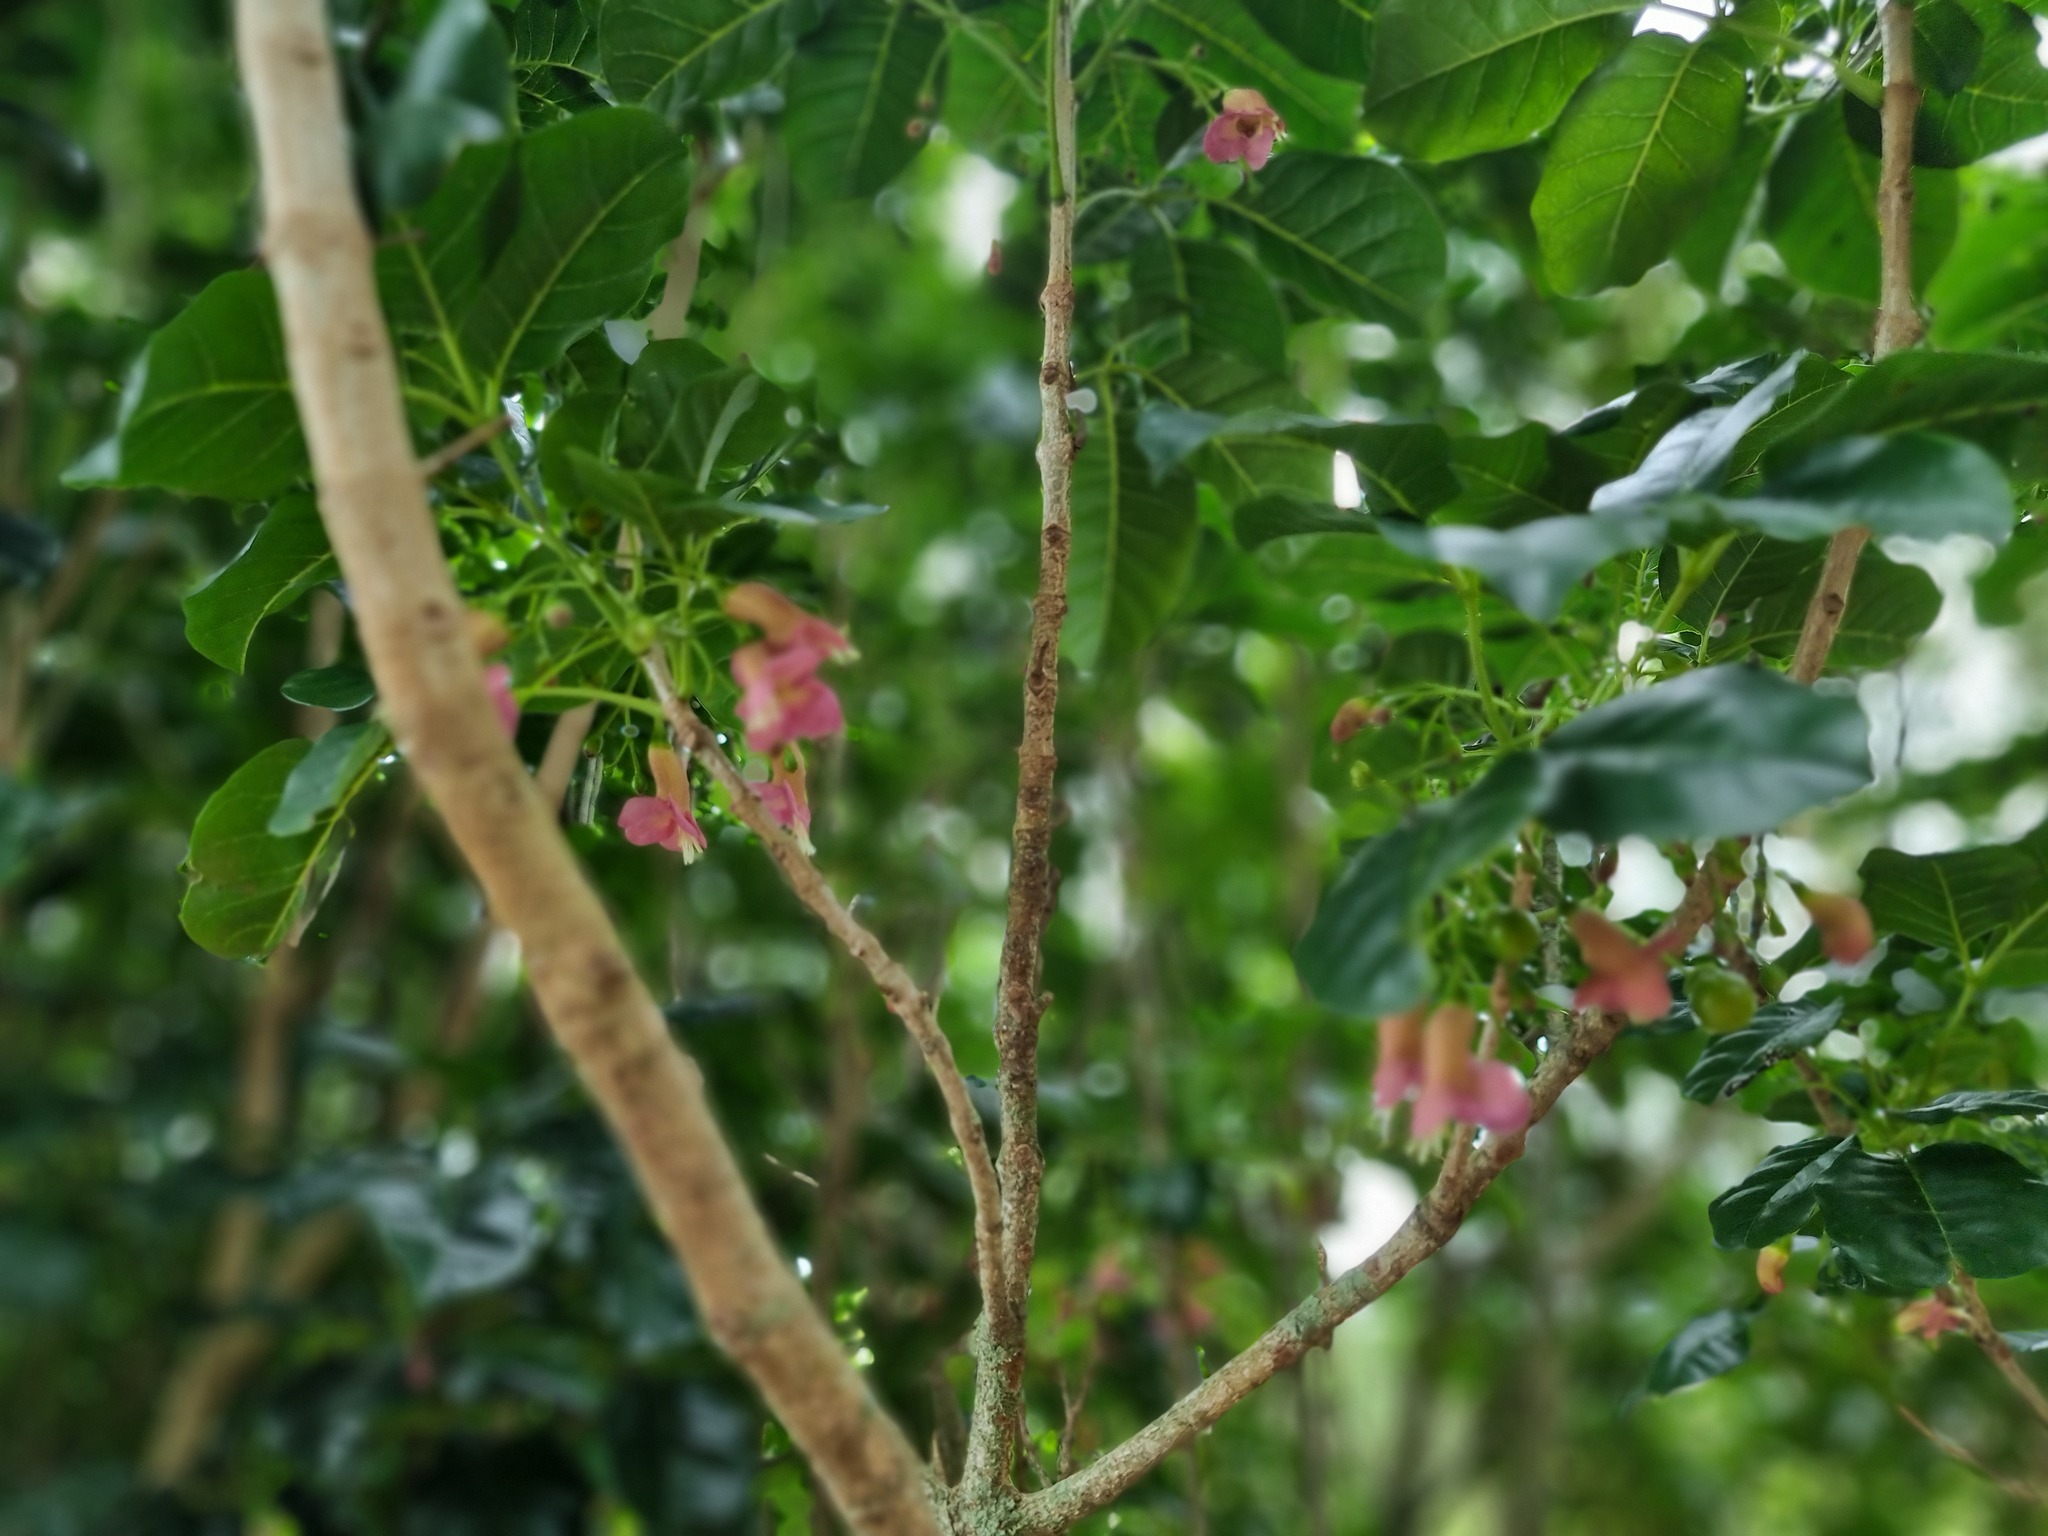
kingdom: Plantae
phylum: Tracheophyta
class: Magnoliopsida
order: Lamiales
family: Lamiaceae
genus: Vitex
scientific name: Vitex lucens
